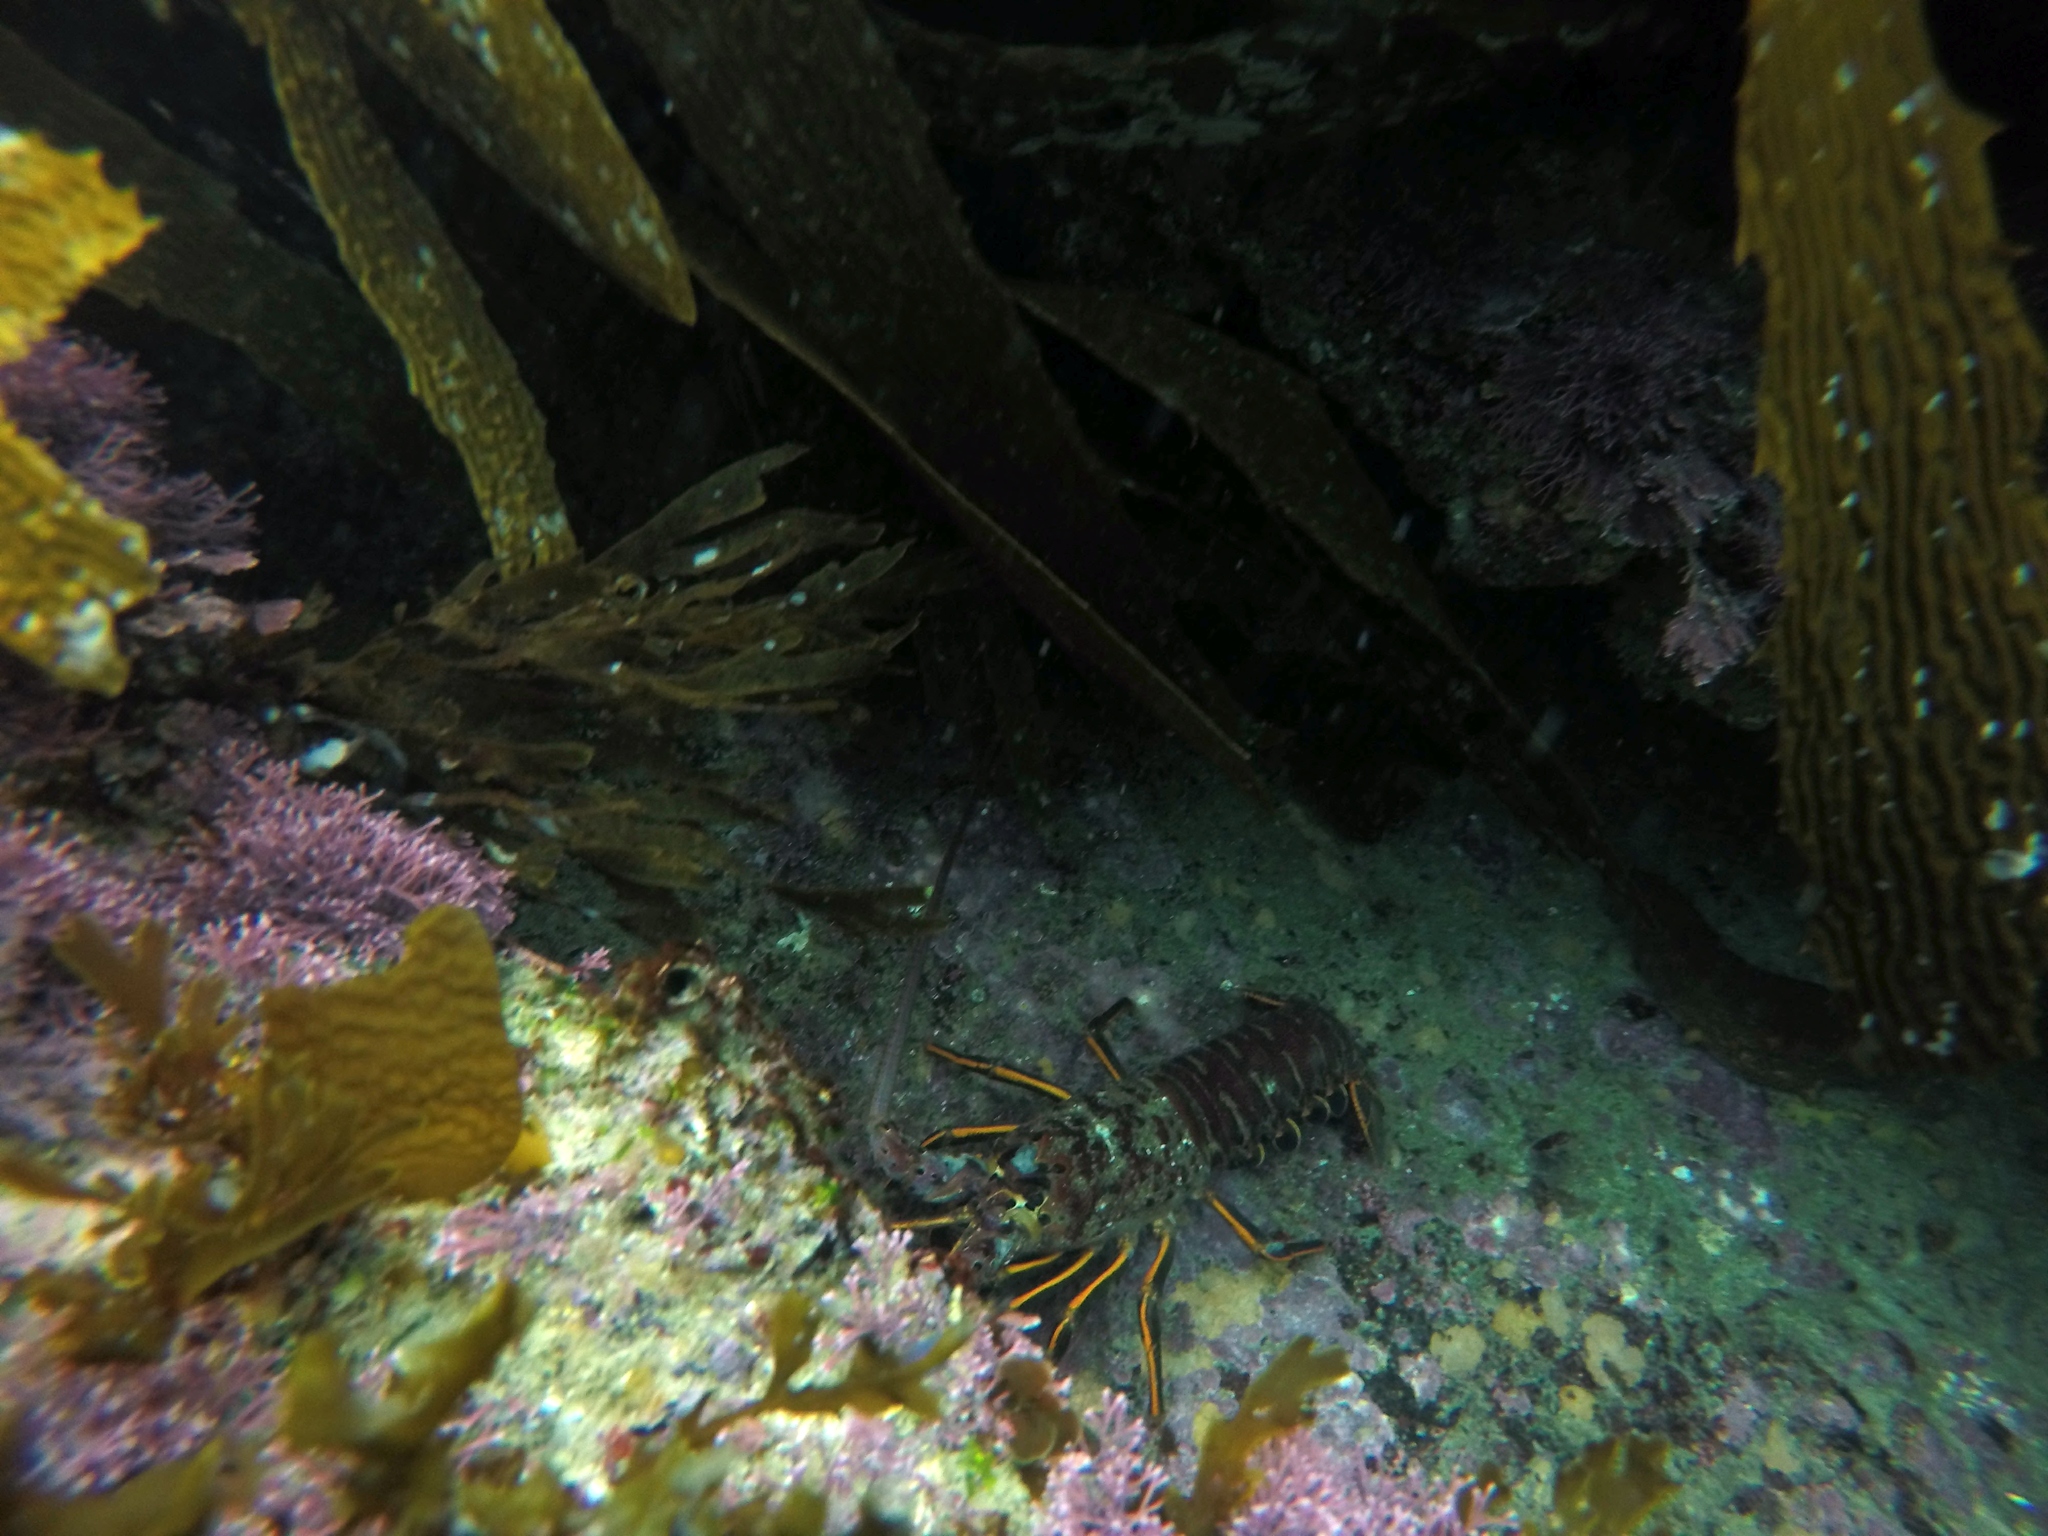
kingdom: Animalia
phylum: Arthropoda
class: Malacostraca
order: Decapoda
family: Palinuridae
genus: Panulirus
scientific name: Panulirus interruptus
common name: California spiny lobster
